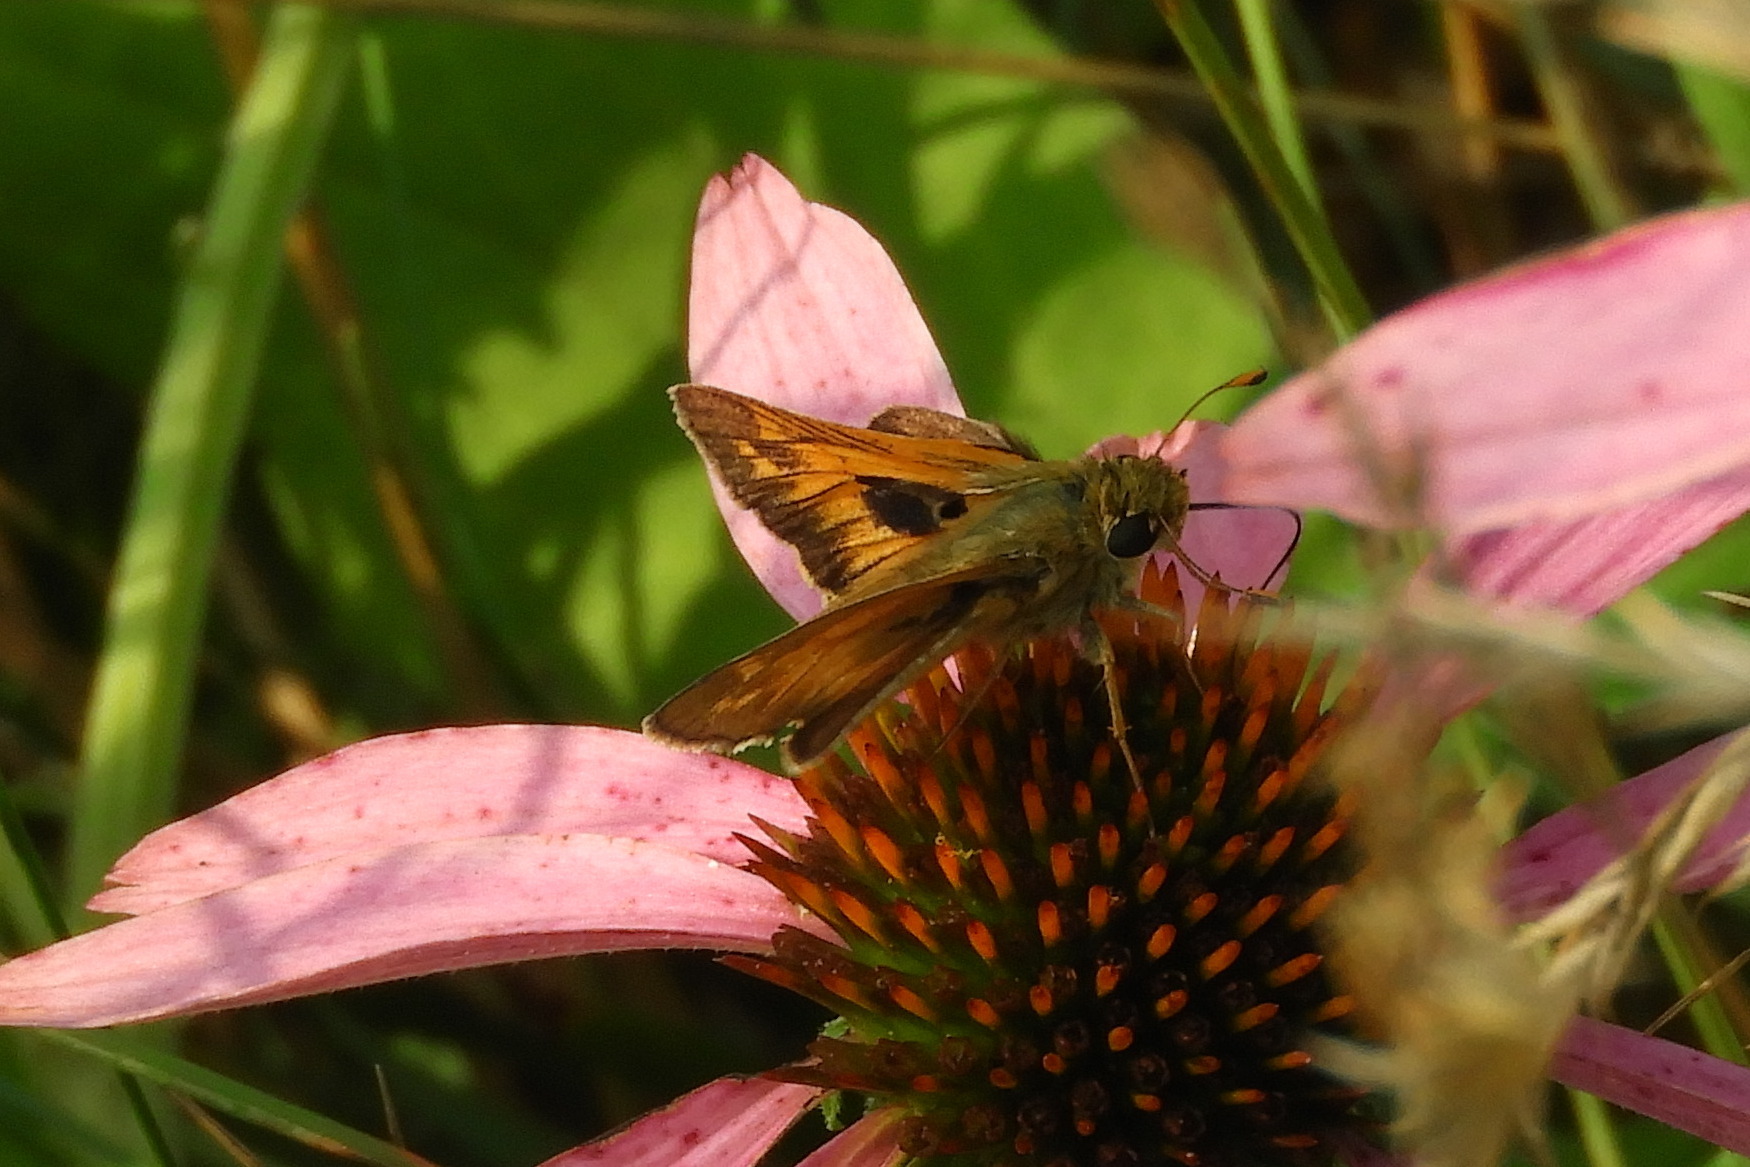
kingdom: Animalia
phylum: Arthropoda
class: Insecta
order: Lepidoptera
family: Hesperiidae
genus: Atalopedes
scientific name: Atalopedes
